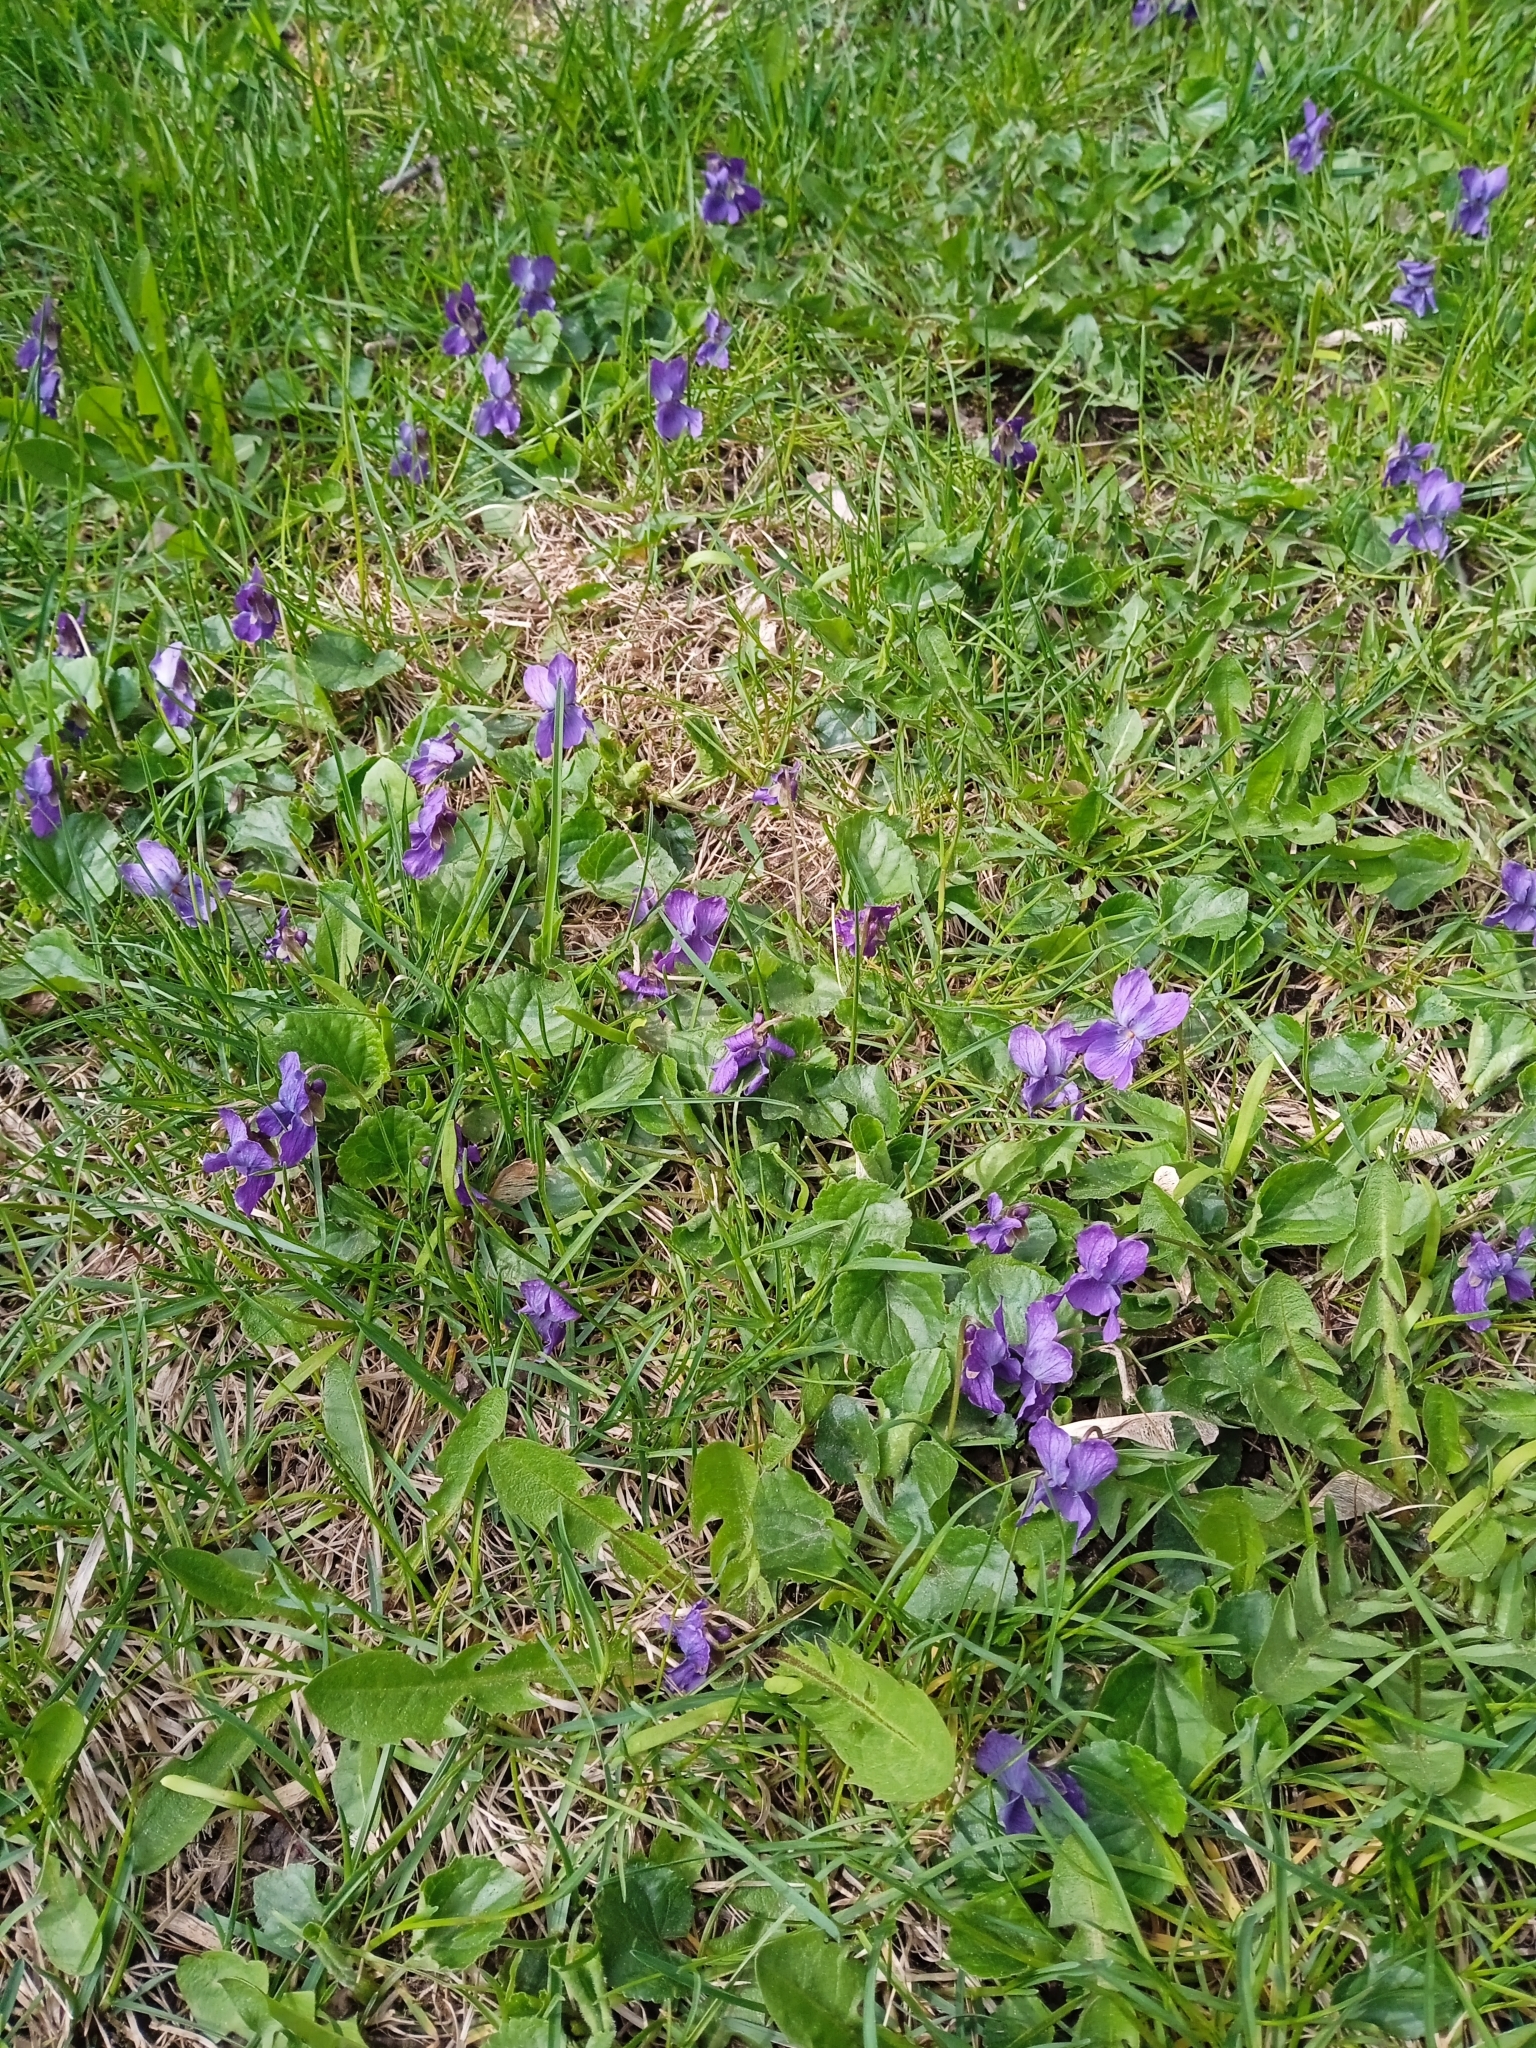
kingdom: Plantae
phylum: Tracheophyta
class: Magnoliopsida
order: Malpighiales
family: Violaceae
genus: Viola
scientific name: Viola odorata
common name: Sweet violet
